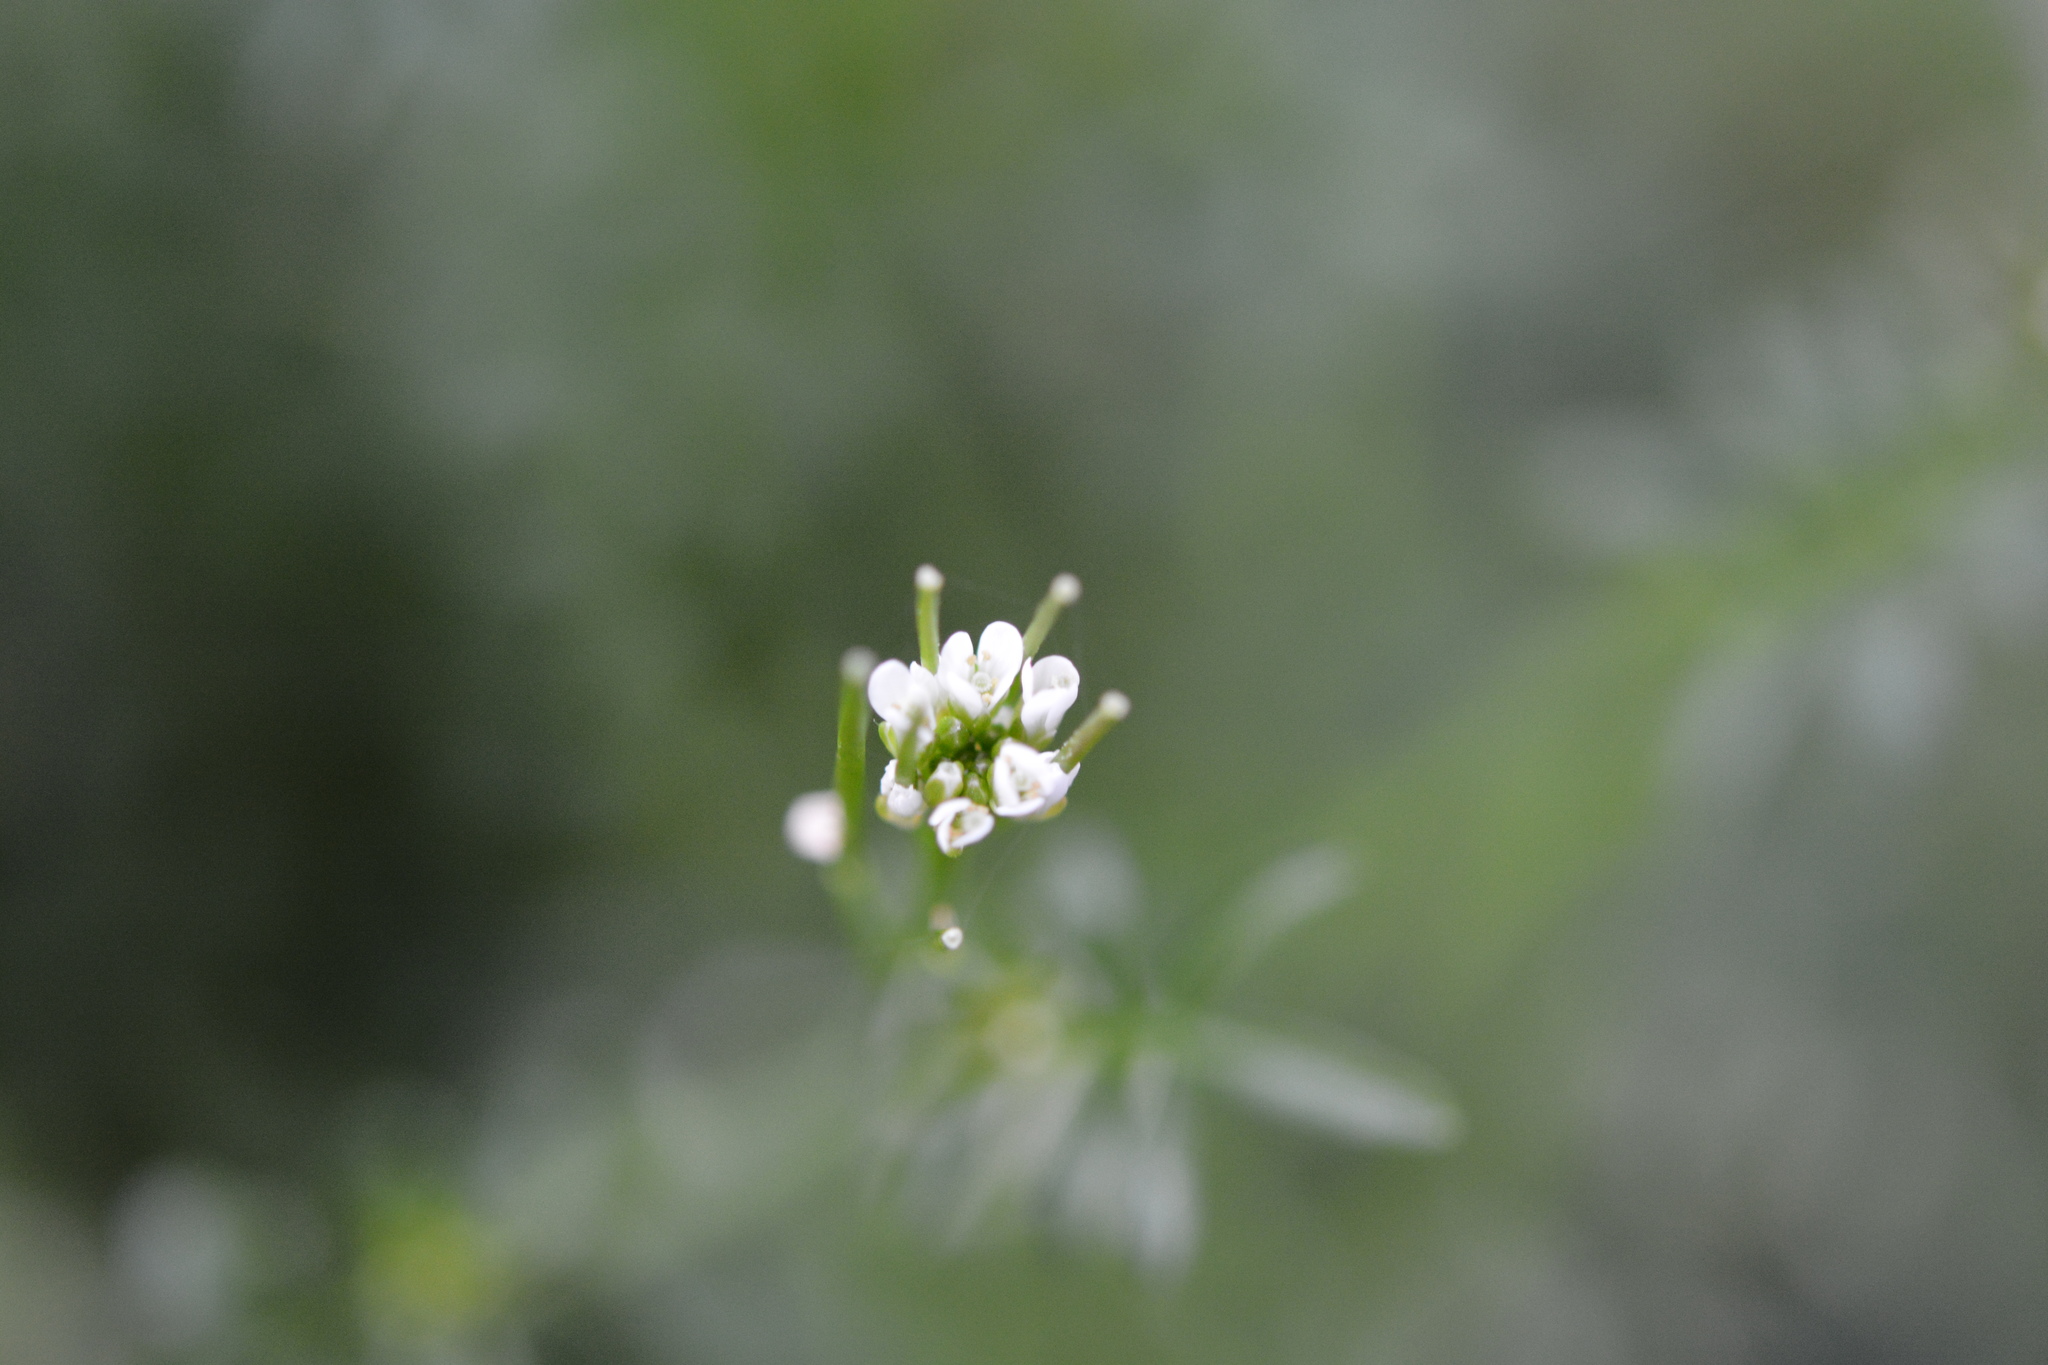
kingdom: Plantae
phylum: Tracheophyta
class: Magnoliopsida
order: Brassicales
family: Brassicaceae
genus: Cardamine
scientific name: Cardamine hirsuta
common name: Hairy bittercress
